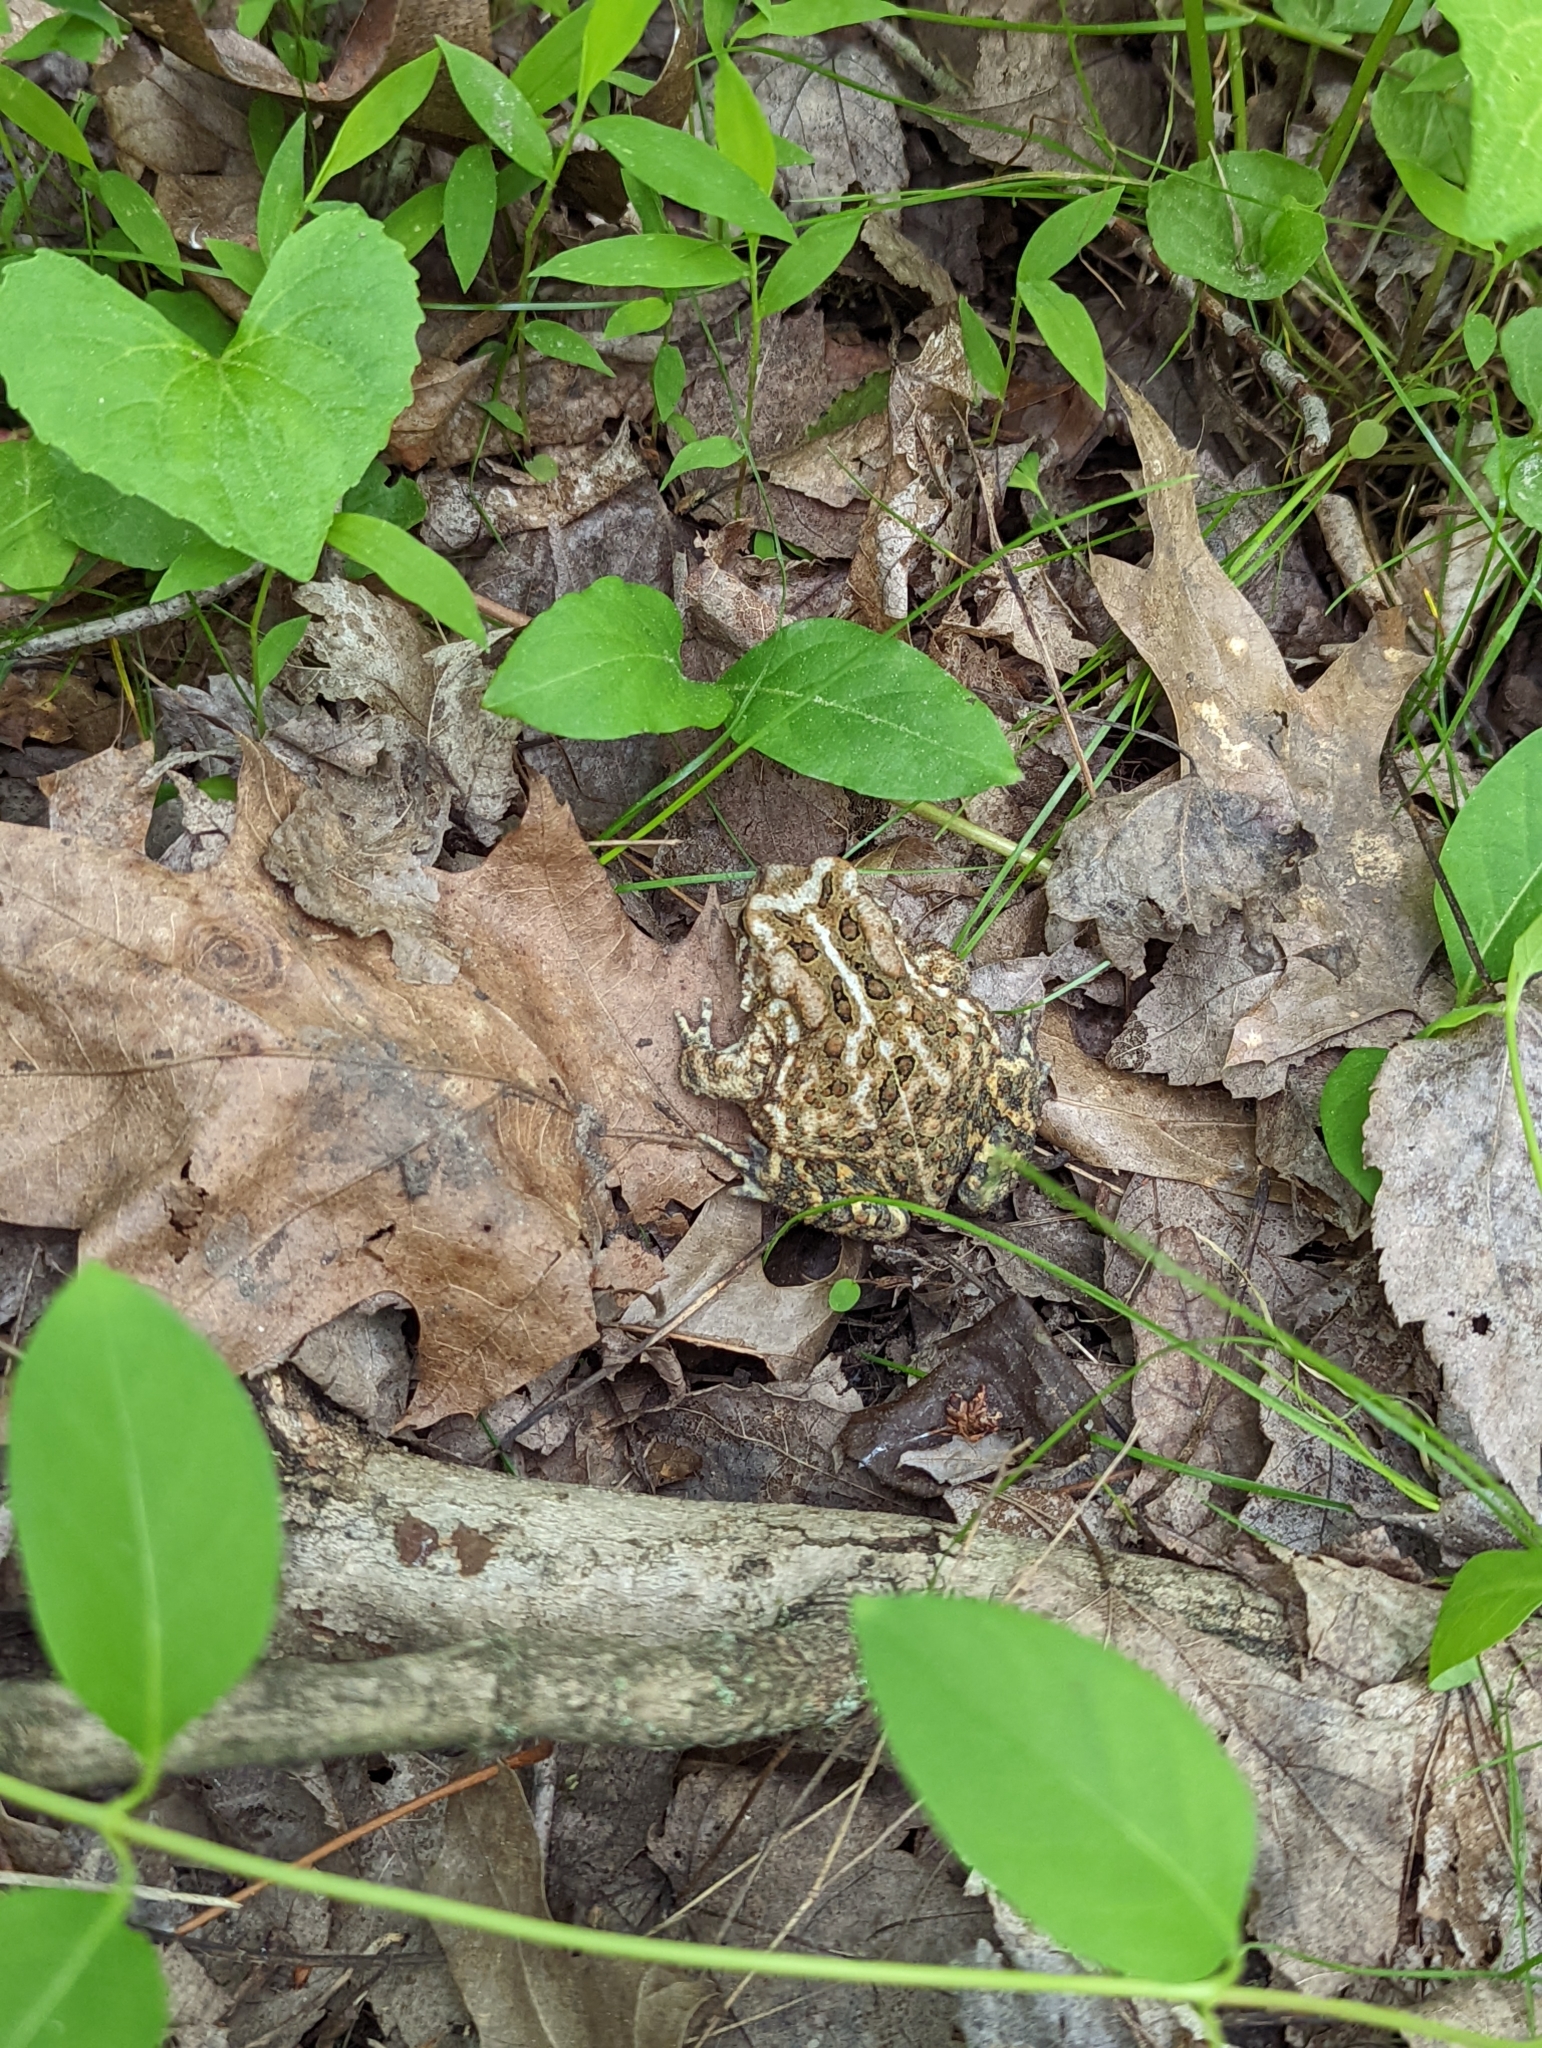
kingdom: Animalia
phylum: Chordata
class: Amphibia
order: Anura
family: Bufonidae
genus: Anaxyrus
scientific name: Anaxyrus fowleri
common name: Fowler's toad
